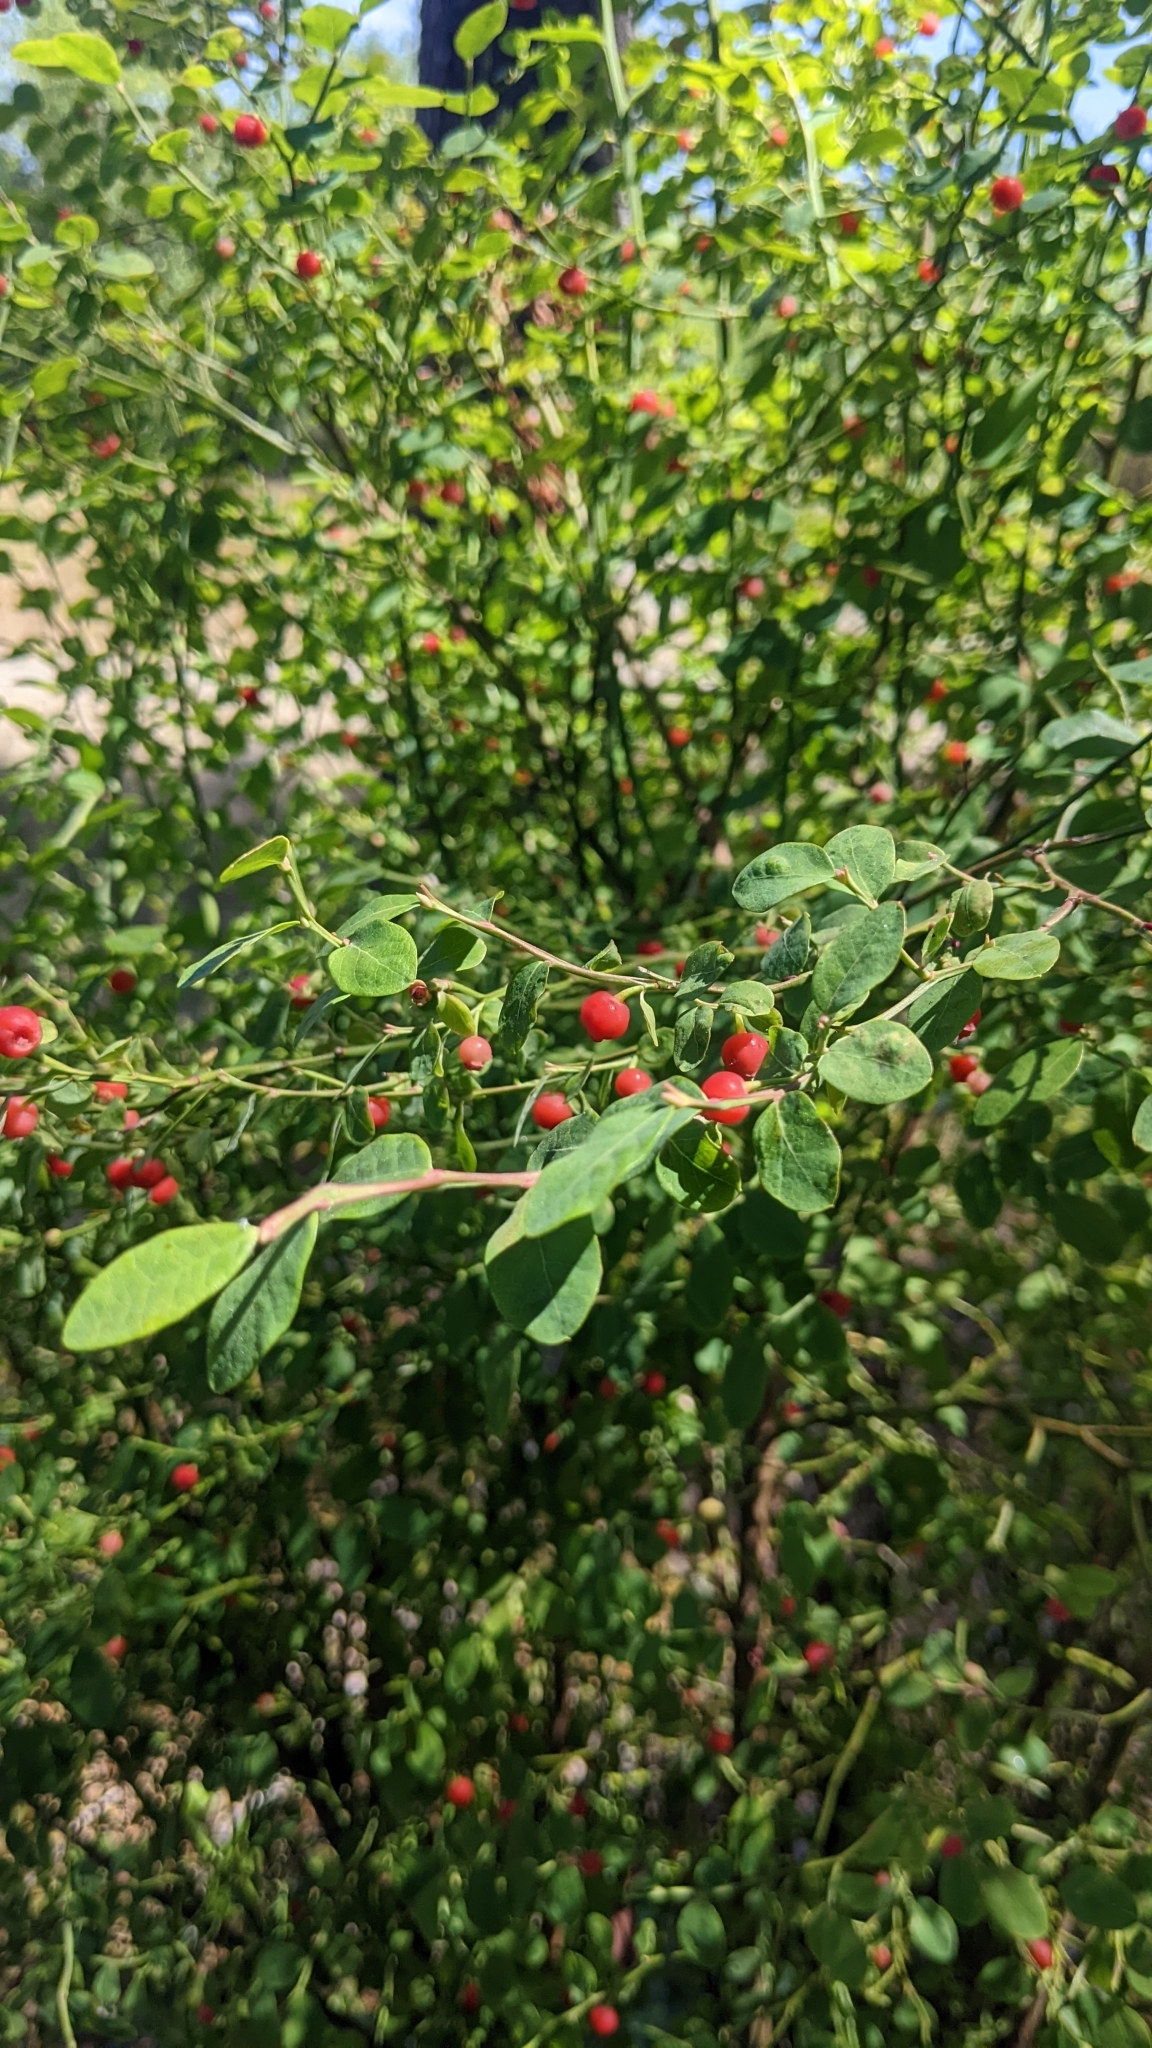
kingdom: Plantae
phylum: Tracheophyta
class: Magnoliopsida
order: Ericales
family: Ericaceae
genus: Vaccinium
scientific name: Vaccinium parvifolium
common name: Red-huckleberry
